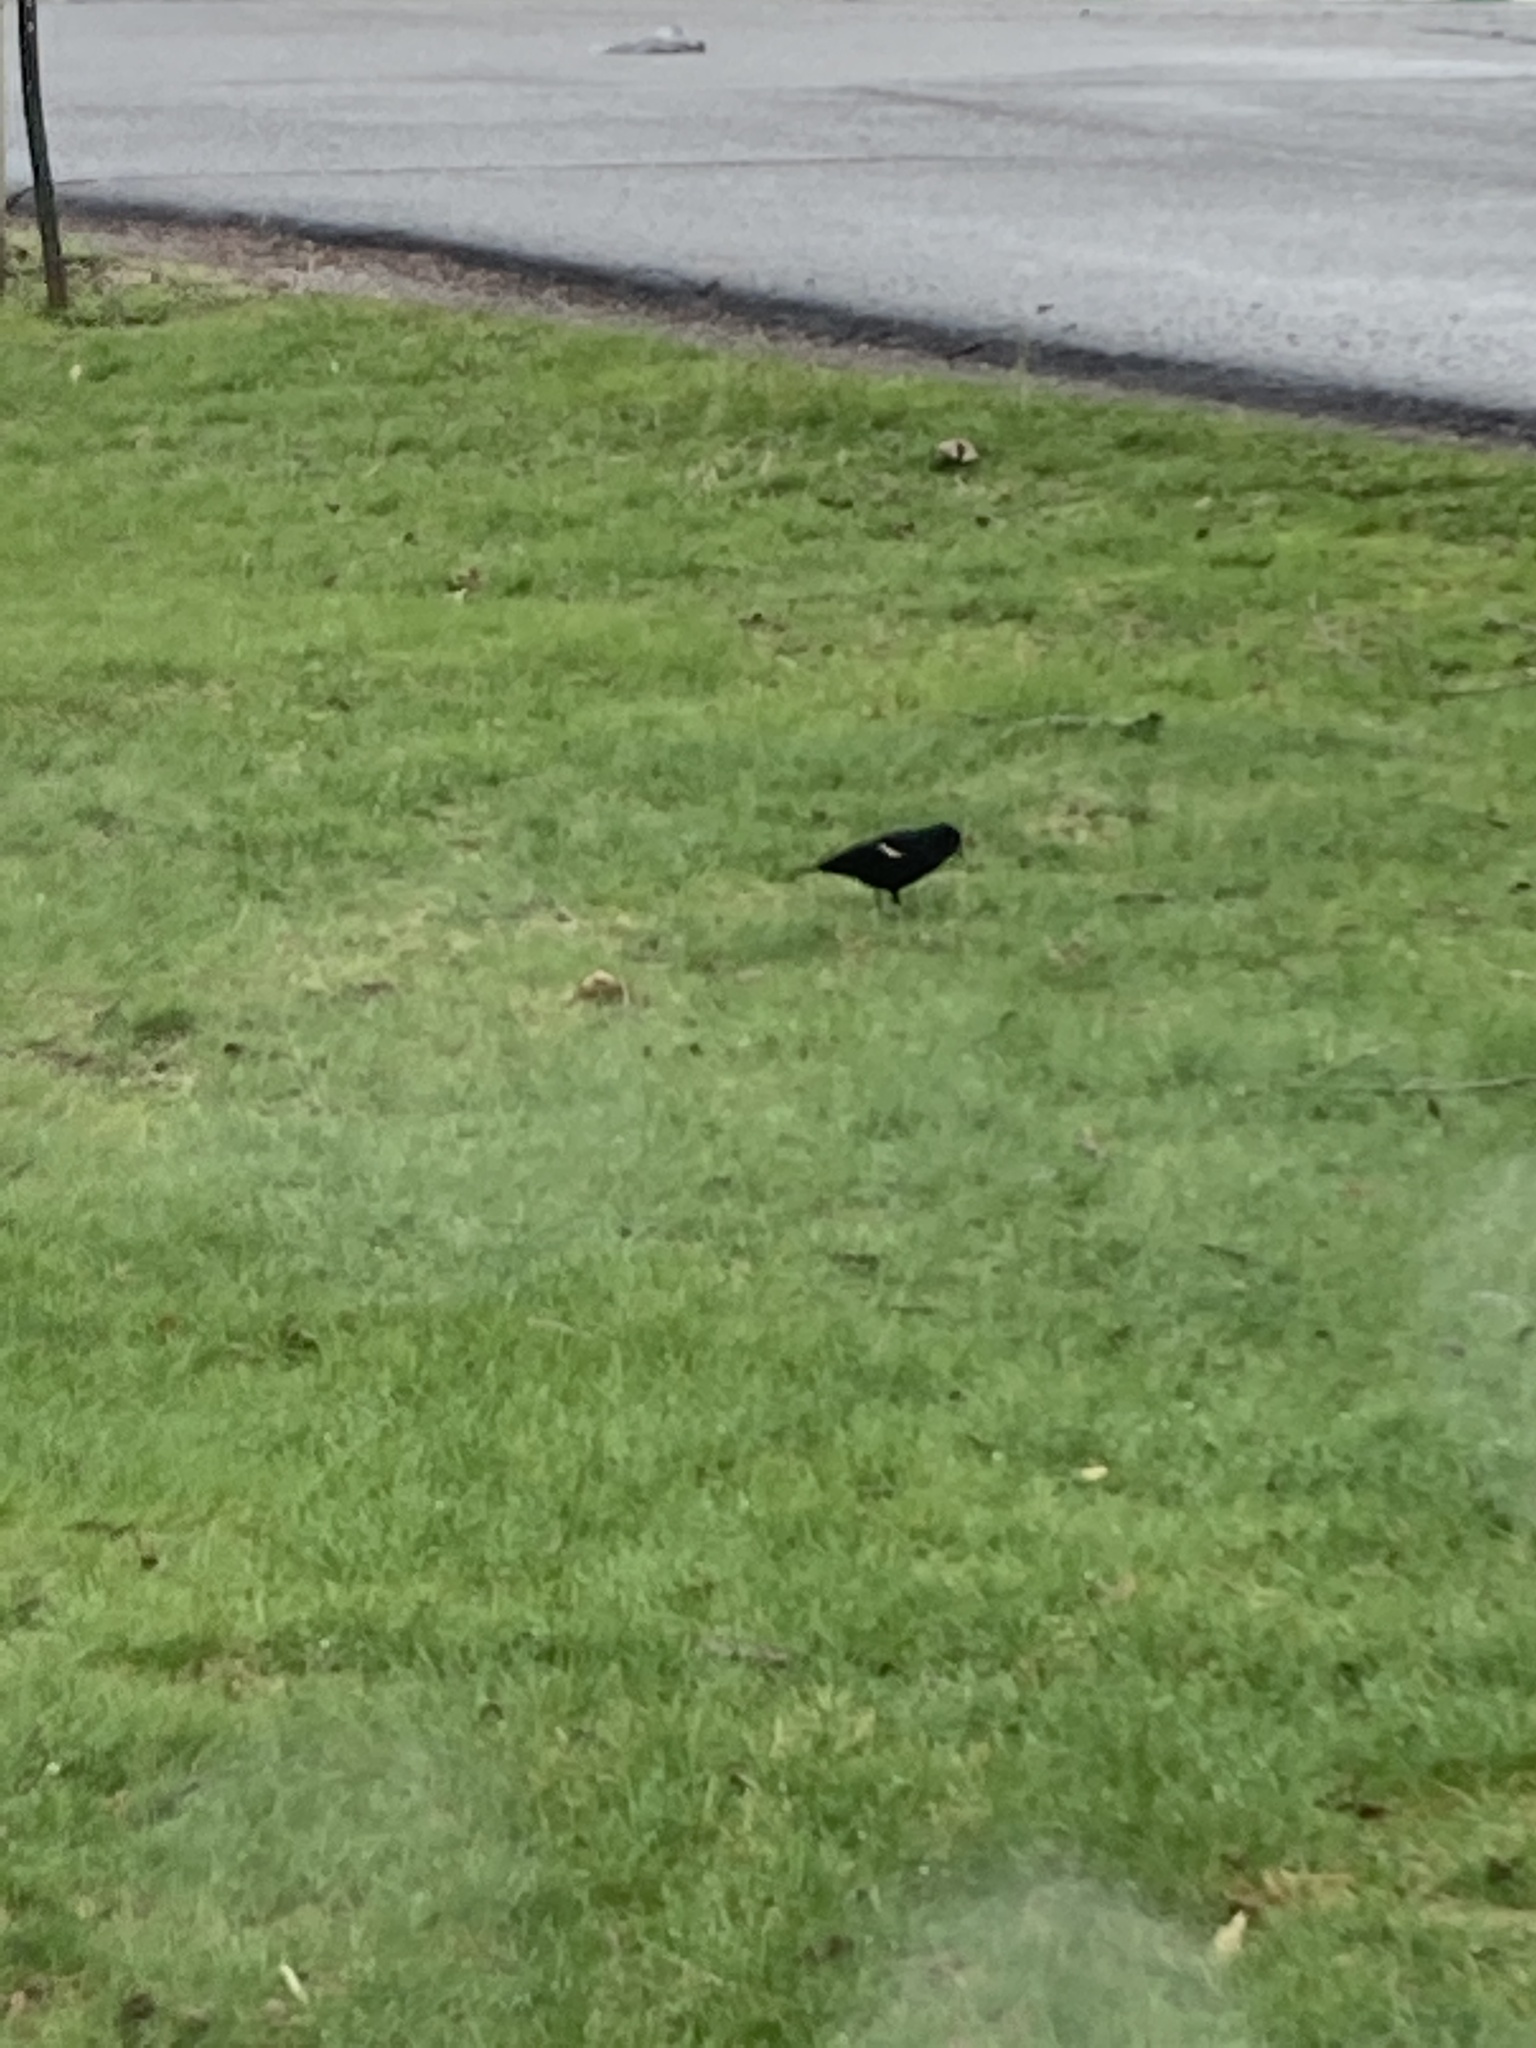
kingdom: Animalia
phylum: Chordata
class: Aves
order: Passeriformes
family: Icteridae
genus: Agelaius
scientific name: Agelaius phoeniceus
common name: Red-winged blackbird
